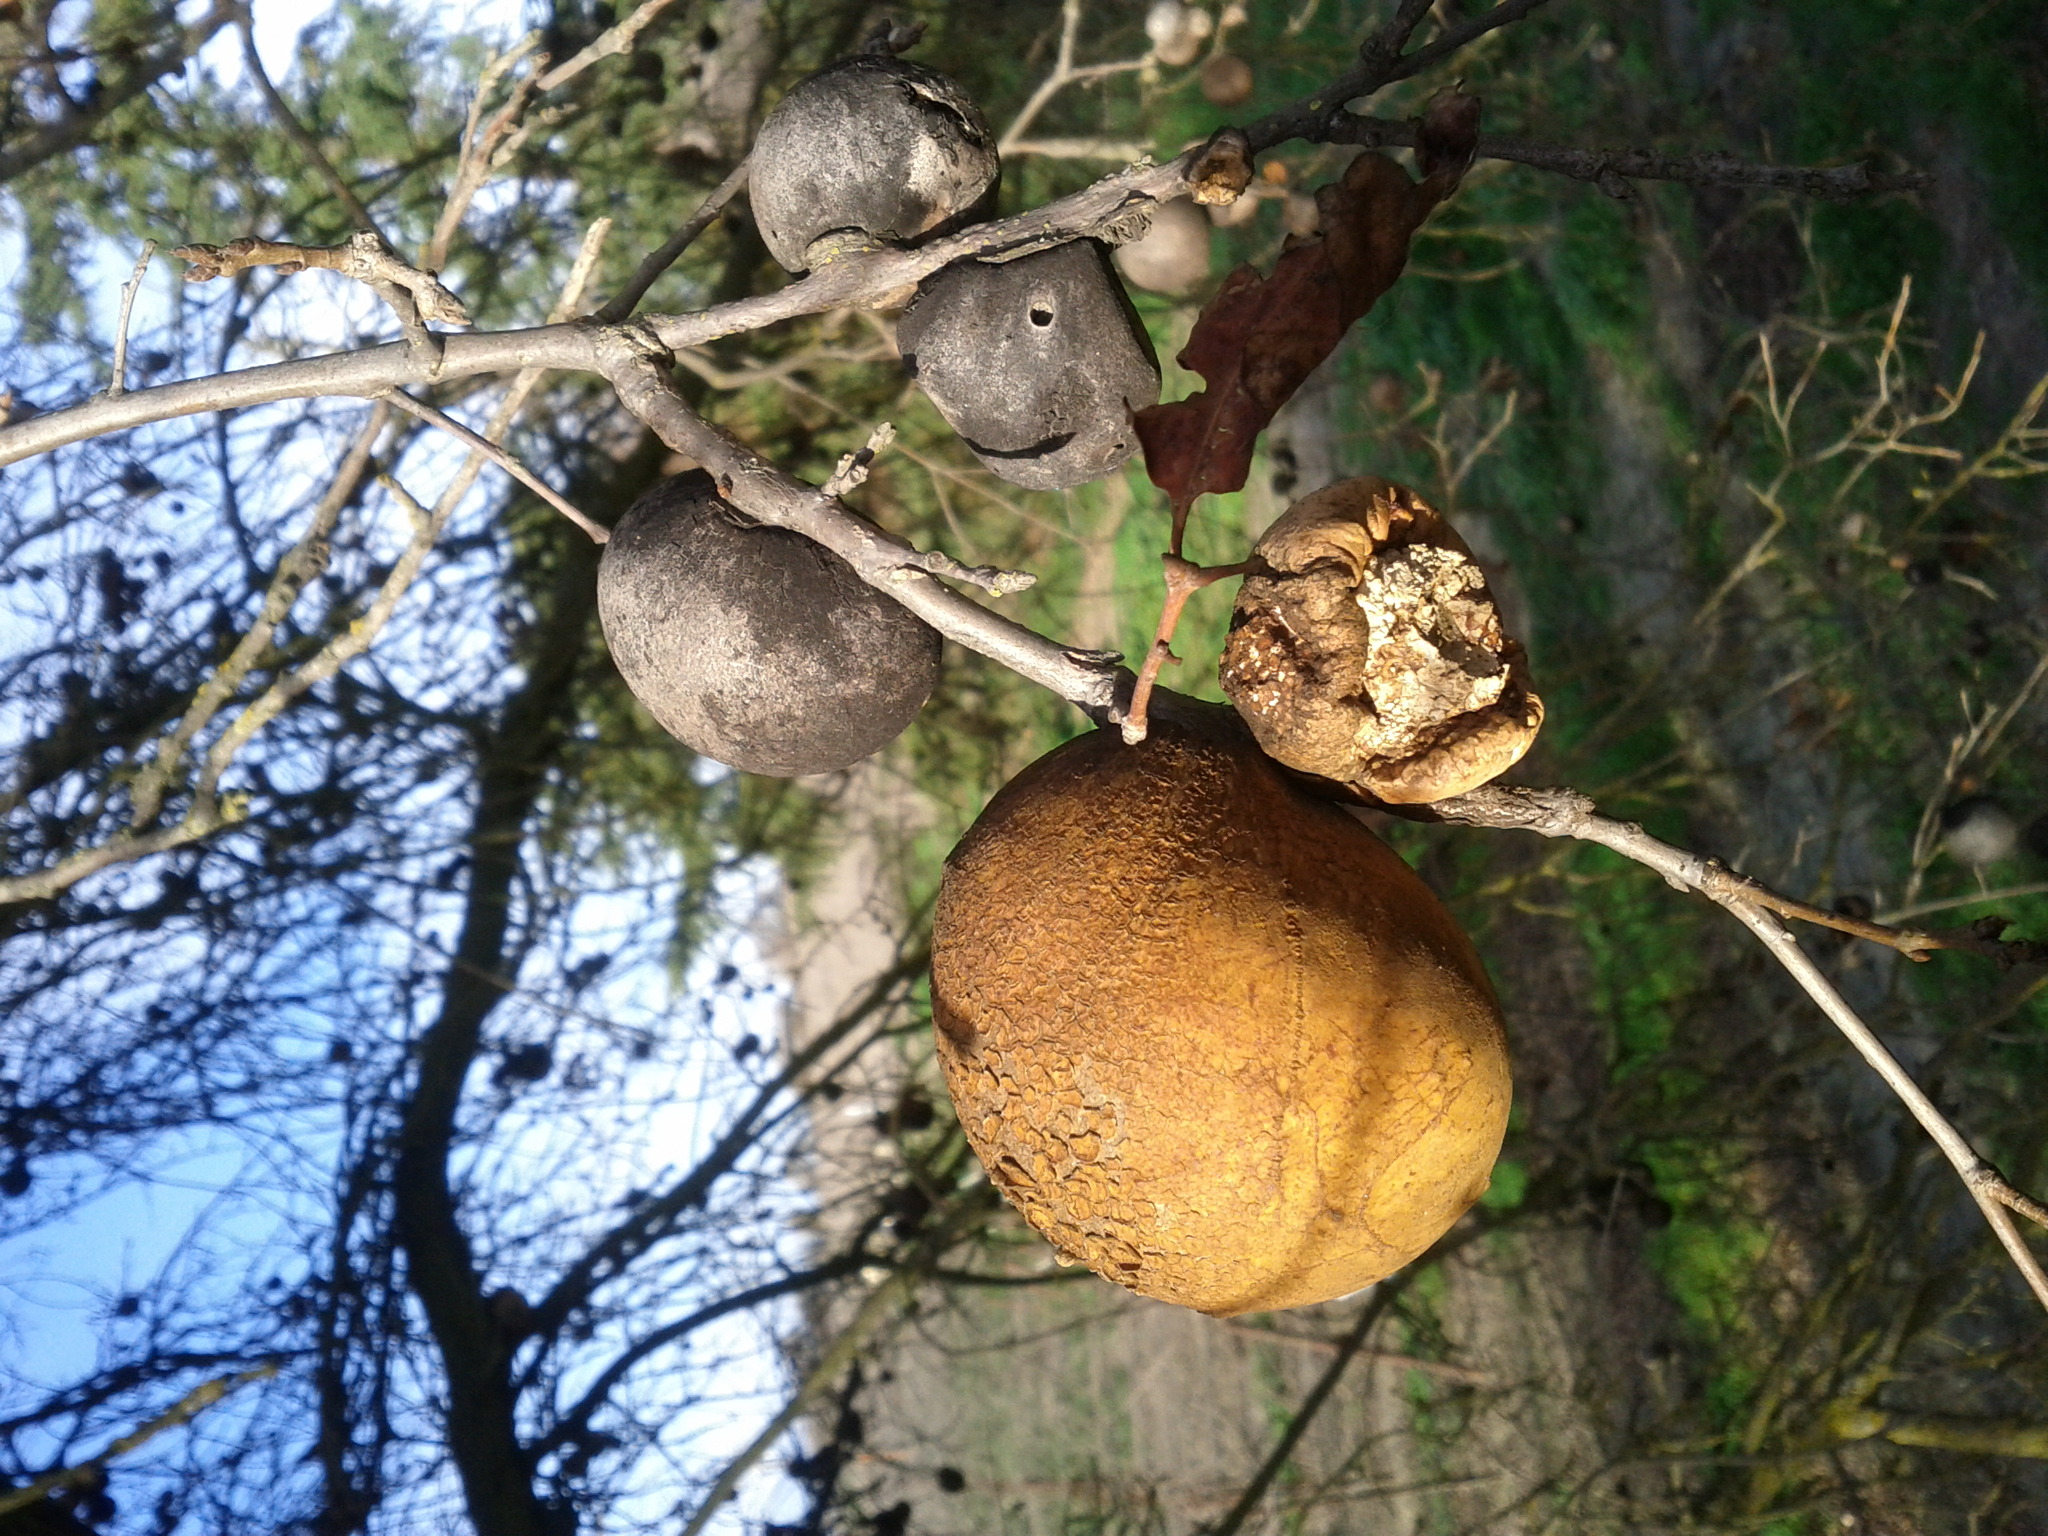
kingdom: Animalia
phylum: Arthropoda
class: Insecta
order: Hymenoptera
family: Cynipidae
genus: Andricus
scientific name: Andricus quercuscalifornicus
